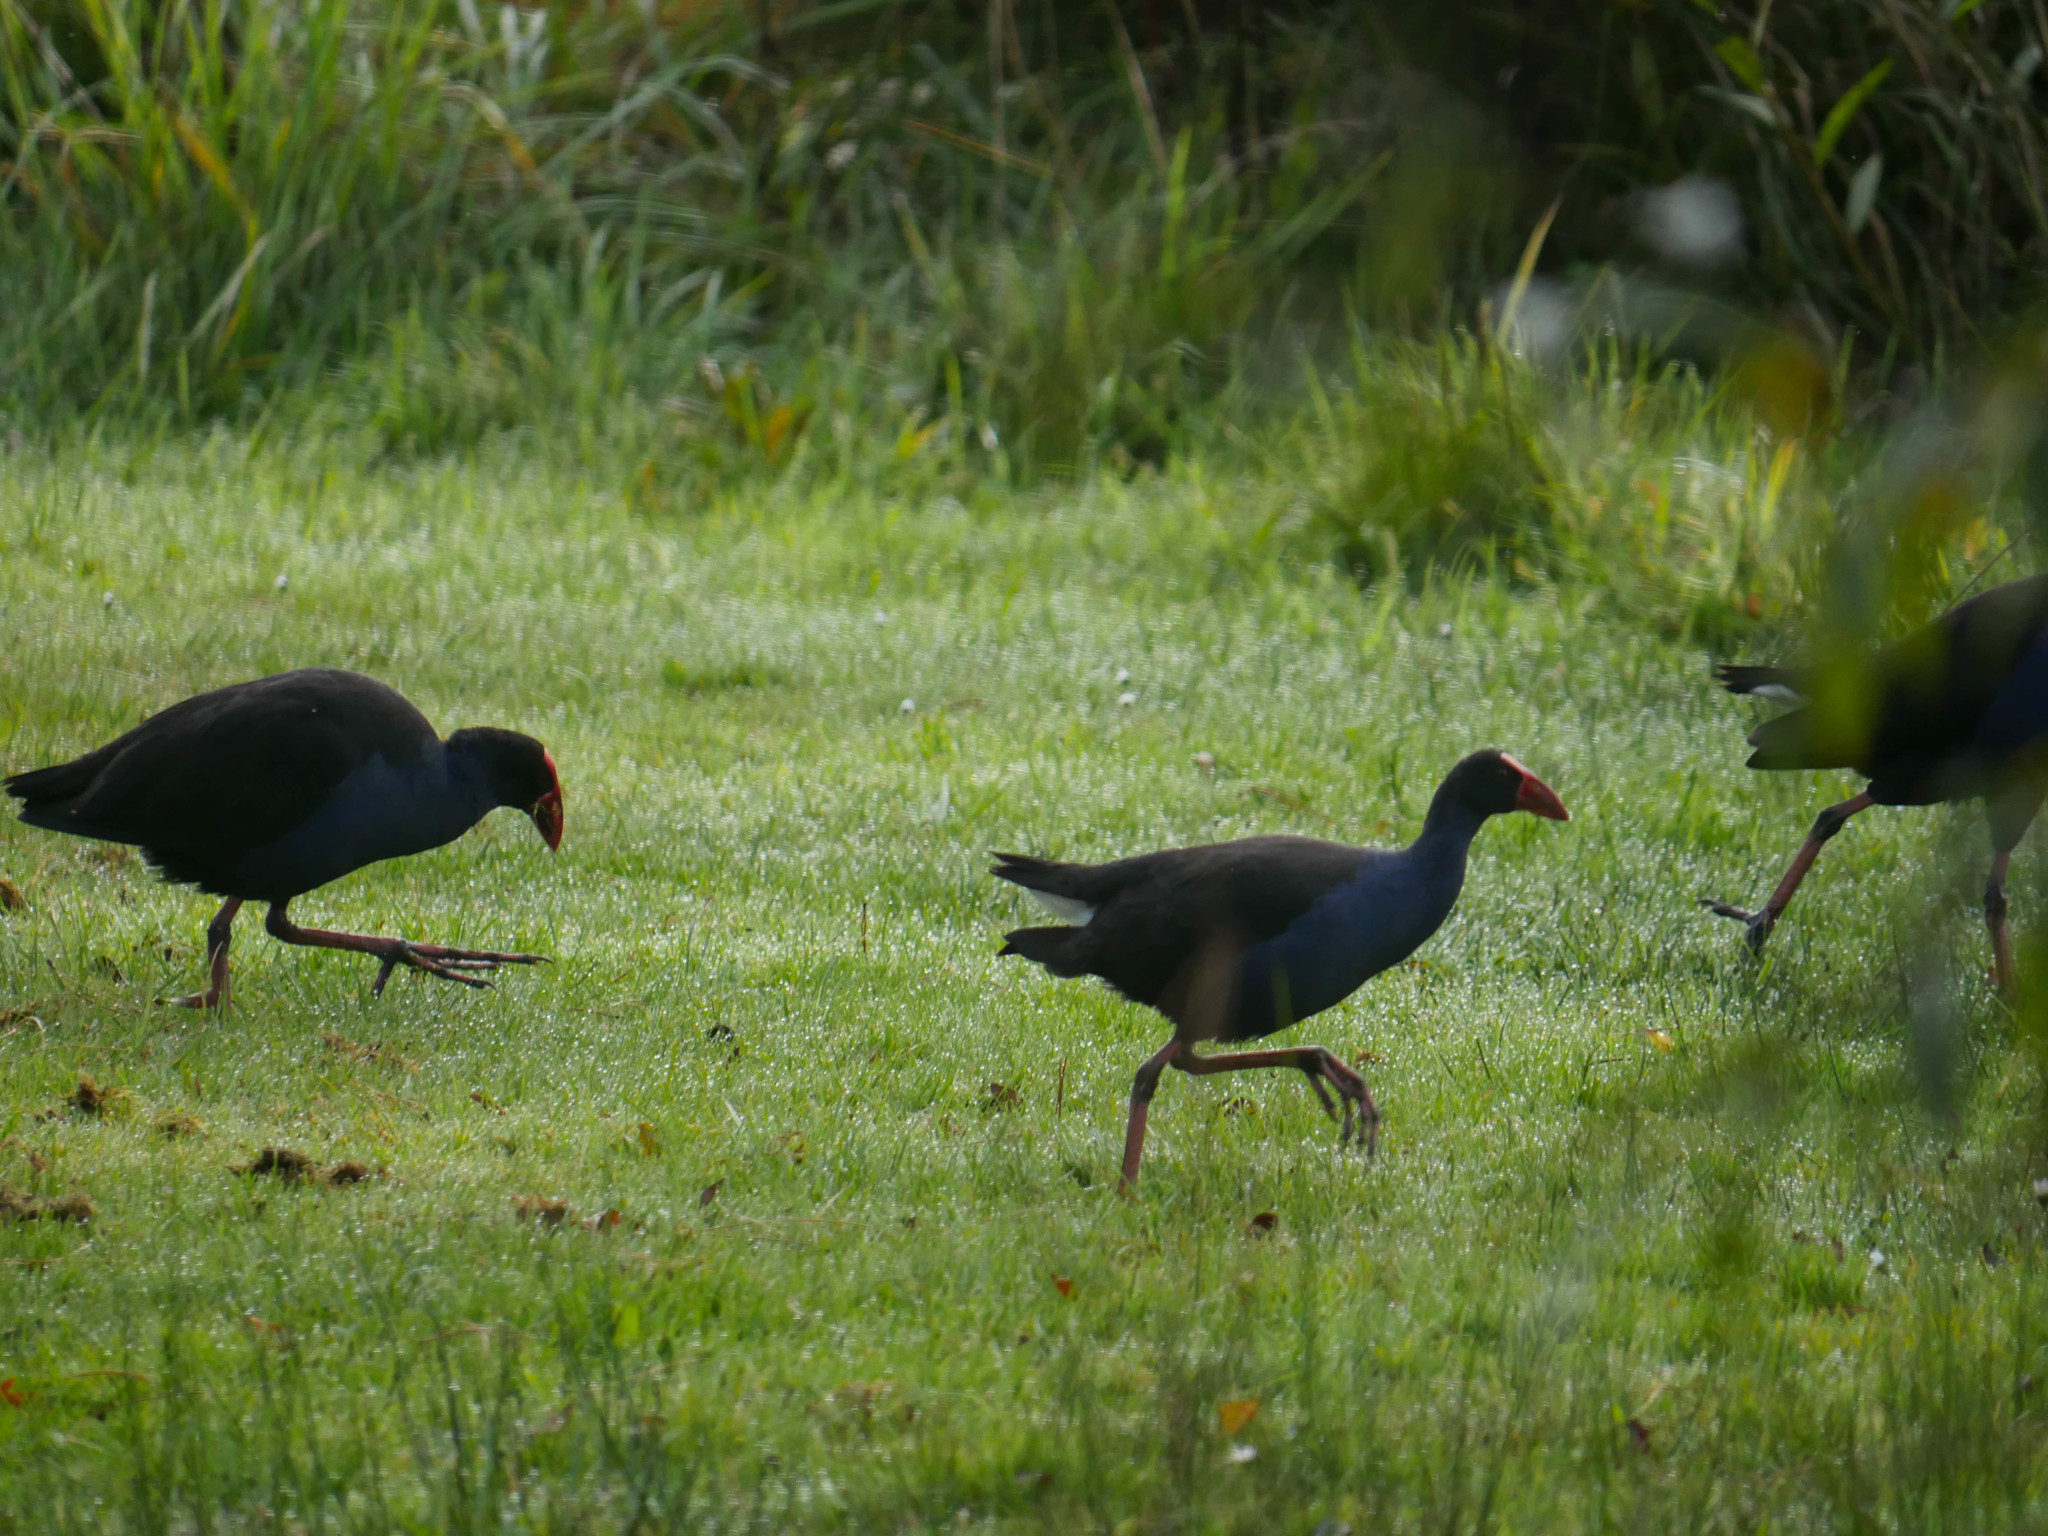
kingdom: Animalia
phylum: Chordata
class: Aves
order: Gruiformes
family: Rallidae
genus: Porphyrio
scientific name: Porphyrio melanotus
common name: Australasian swamphen
